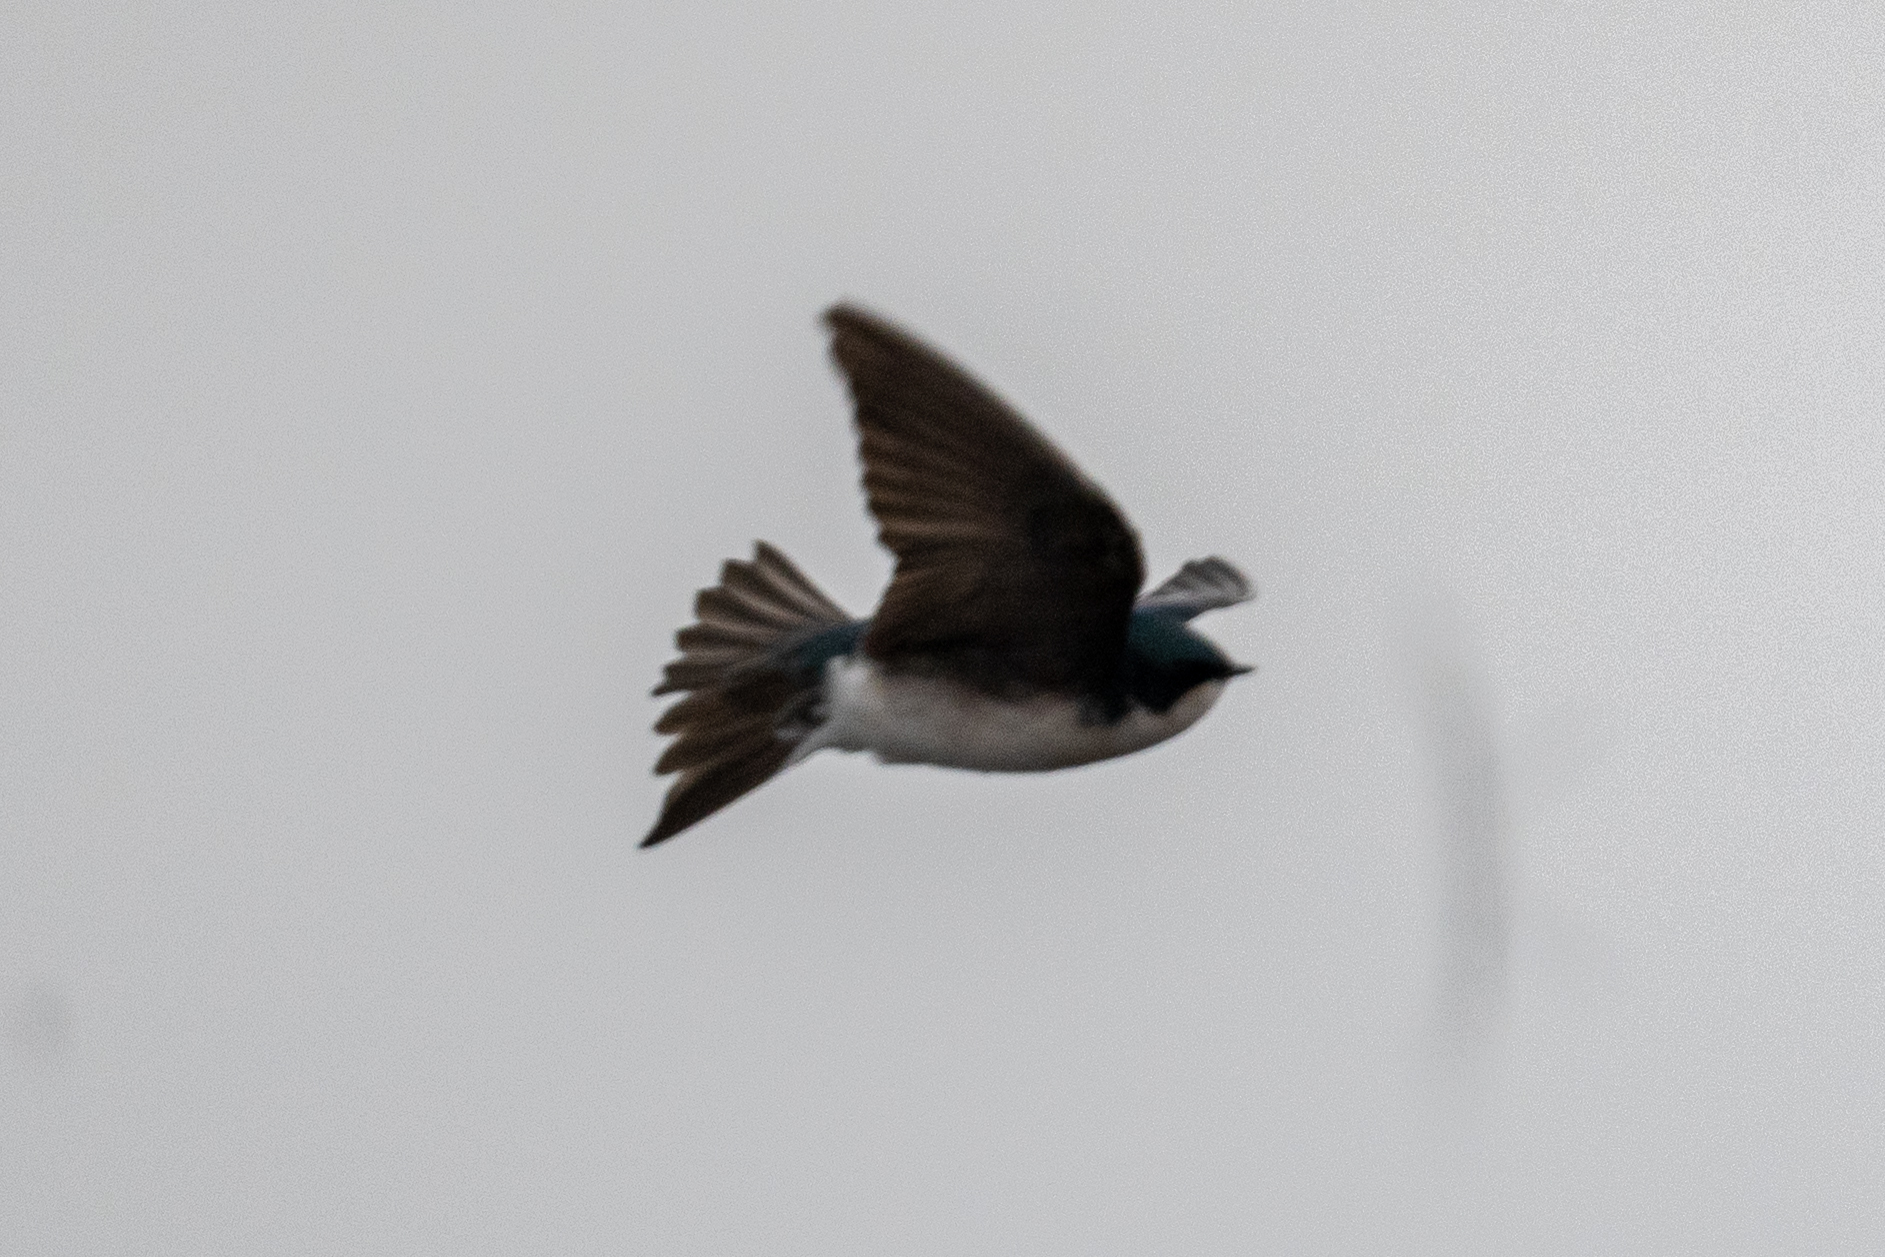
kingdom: Animalia
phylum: Chordata
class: Aves
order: Passeriformes
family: Hirundinidae
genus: Tachycineta
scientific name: Tachycineta bicolor
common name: Tree swallow
